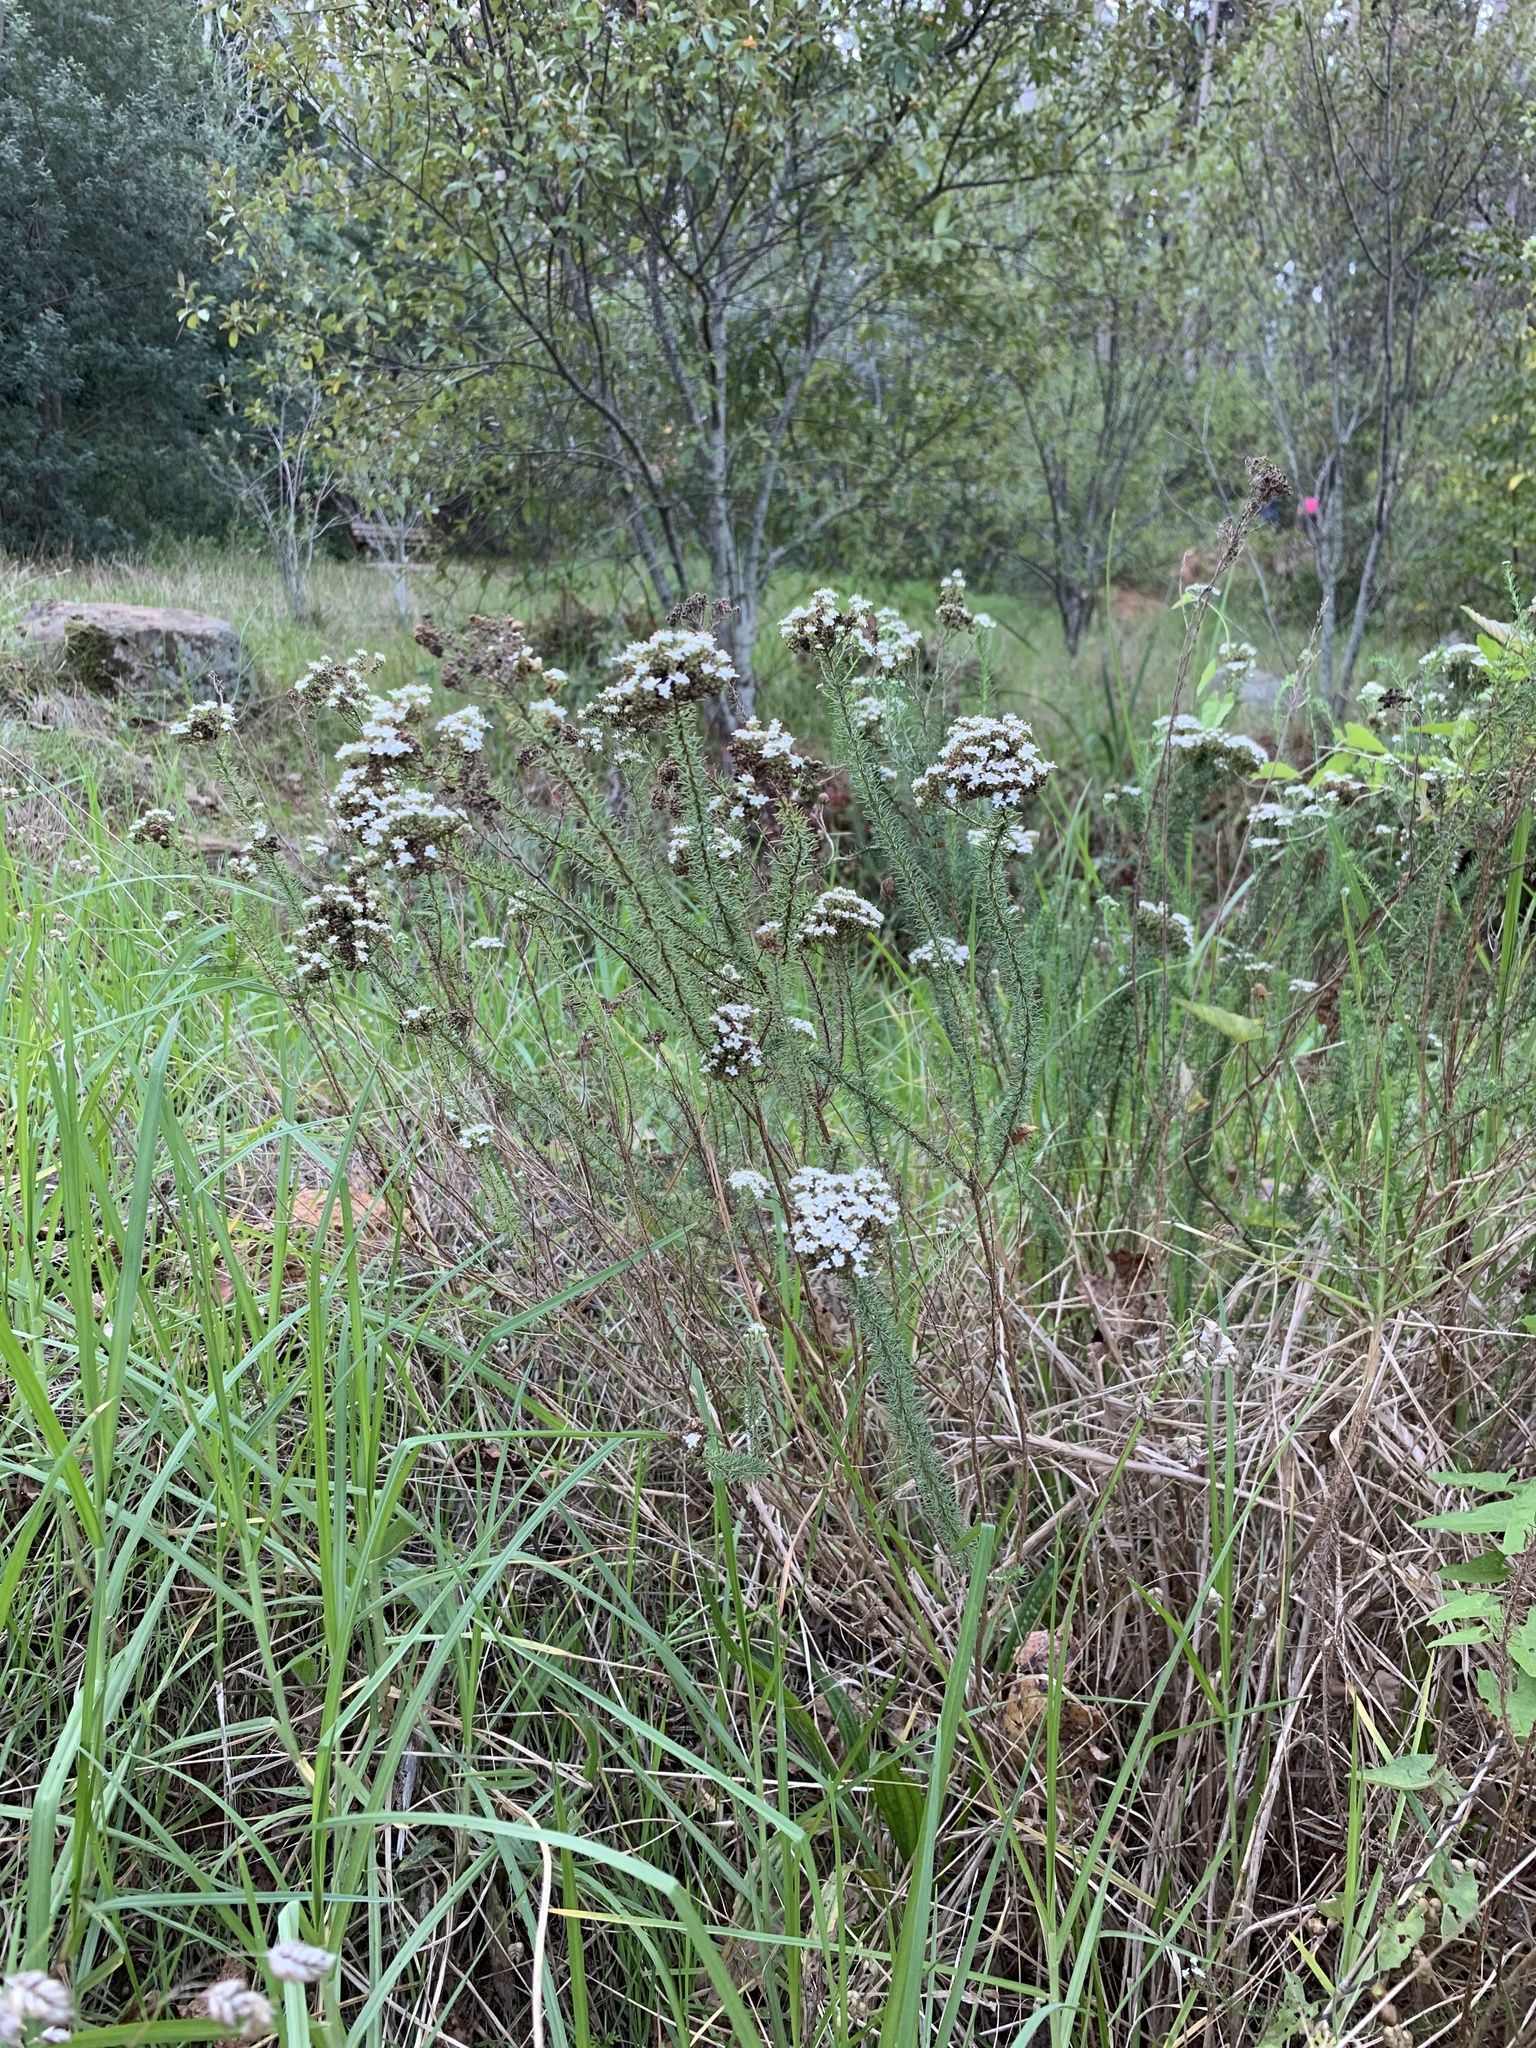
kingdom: Plantae
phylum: Tracheophyta
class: Magnoliopsida
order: Lamiales
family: Scrophulariaceae
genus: Selago
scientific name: Selago corymbosa
